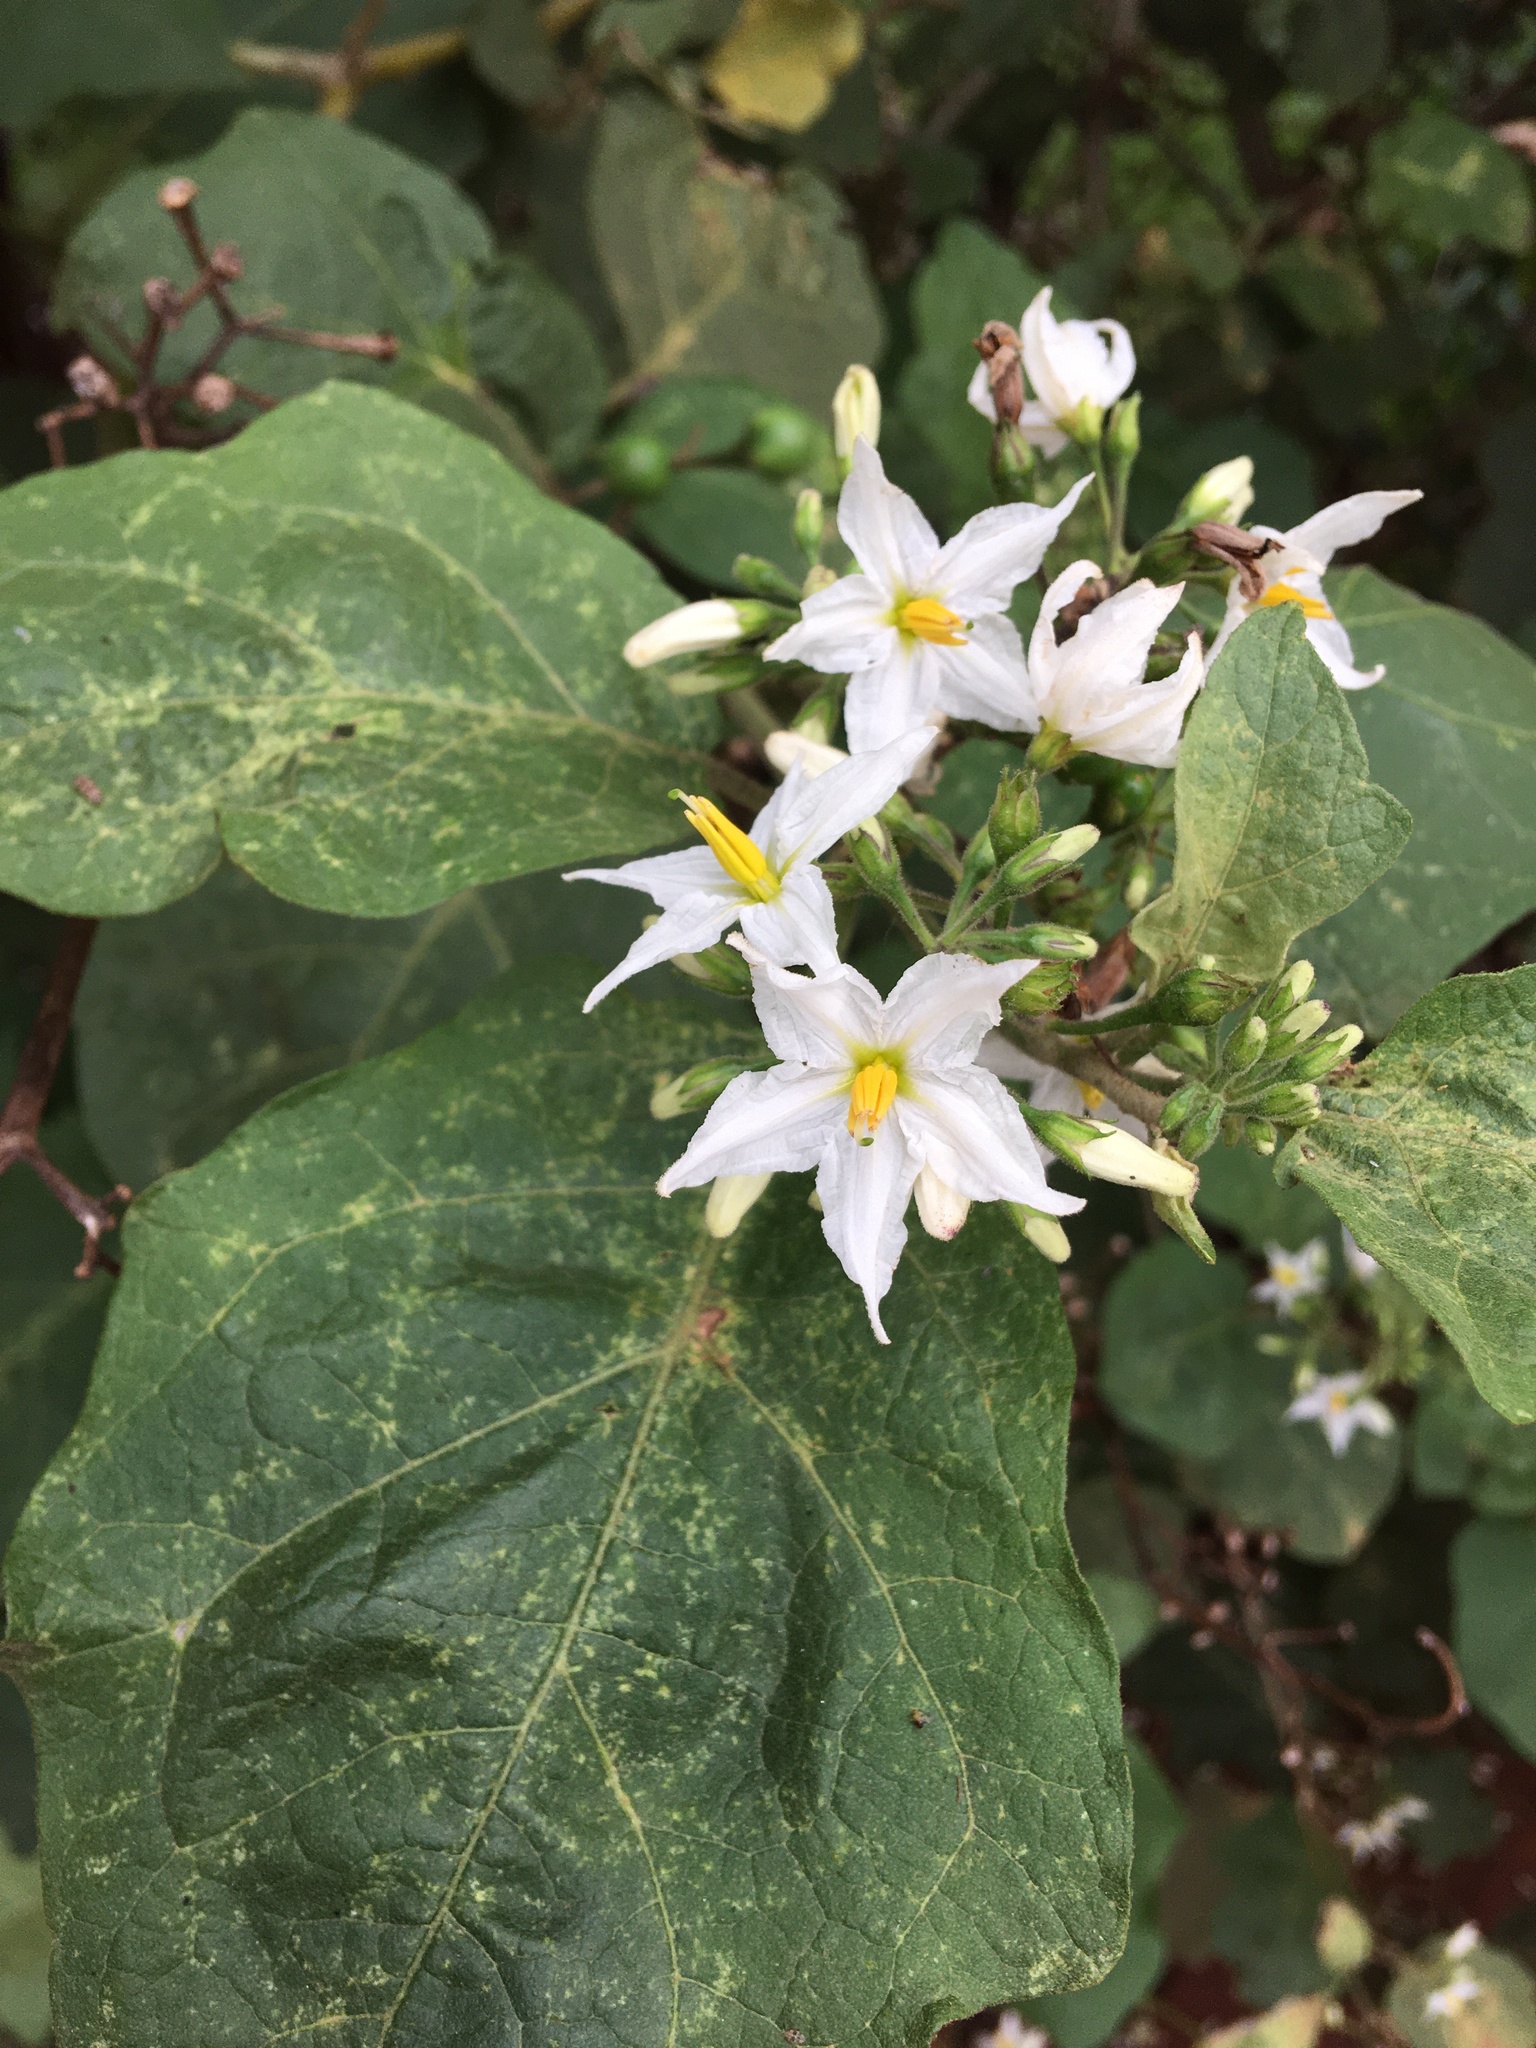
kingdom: Plantae
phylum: Tracheophyta
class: Magnoliopsida
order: Solanales
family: Solanaceae
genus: Solanum
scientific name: Solanum torvum
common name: Turkey berry
